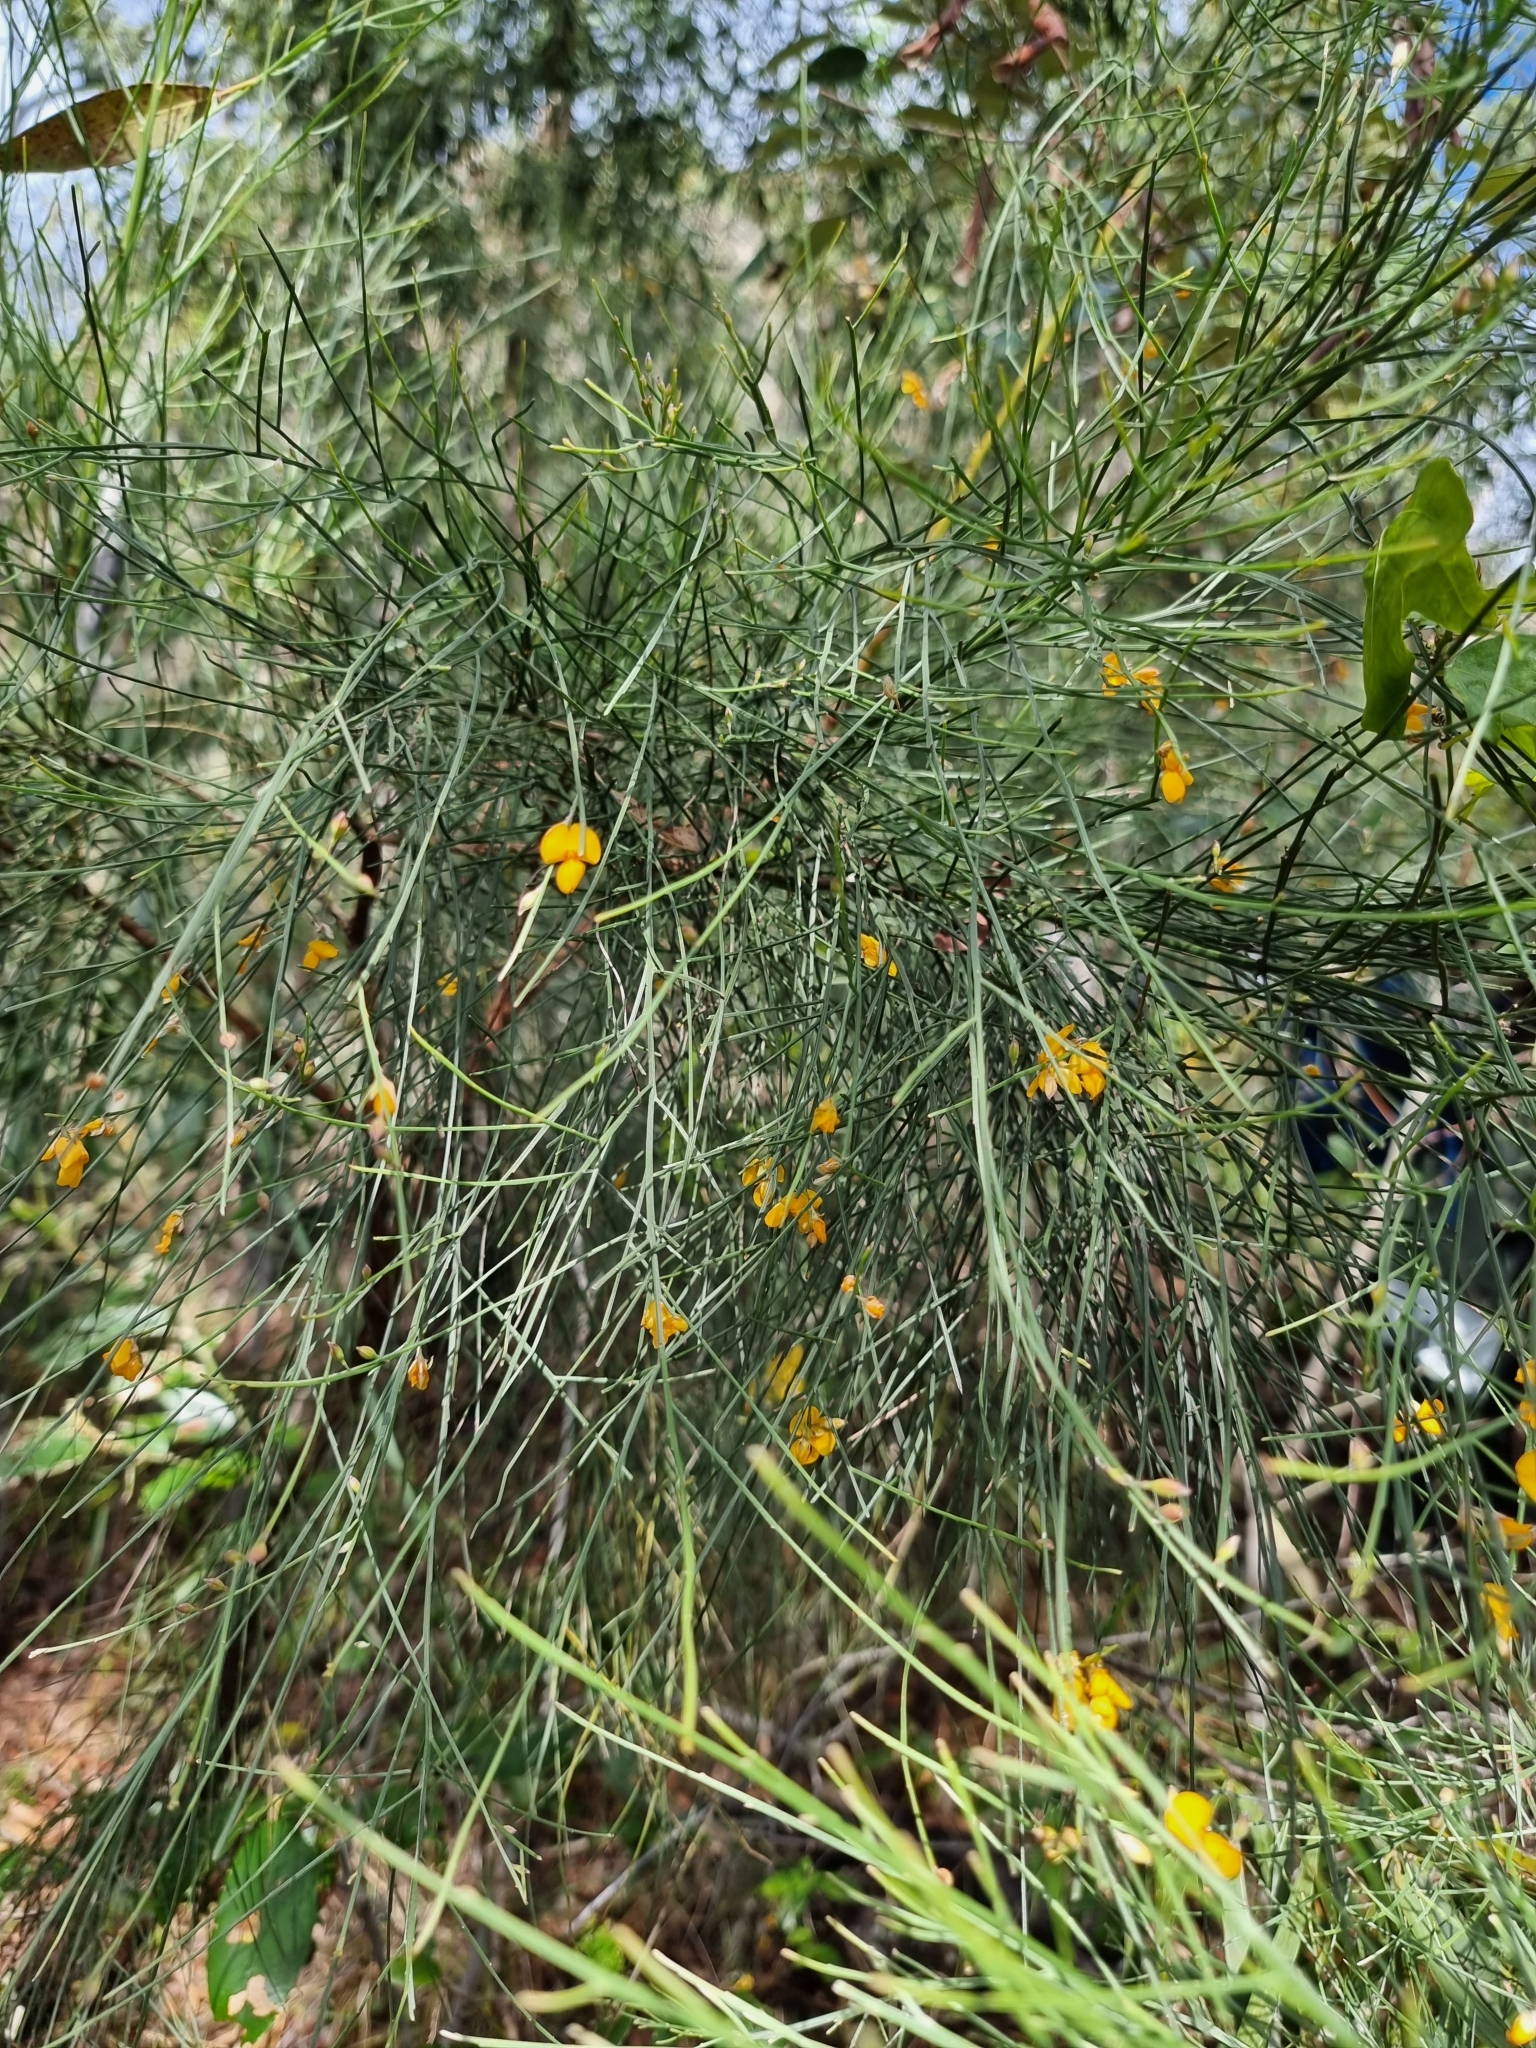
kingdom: Plantae
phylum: Tracheophyta
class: Magnoliopsida
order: Fabales
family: Fabaceae
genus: Jacksonia
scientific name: Jacksonia scoparia
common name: Dogwood
